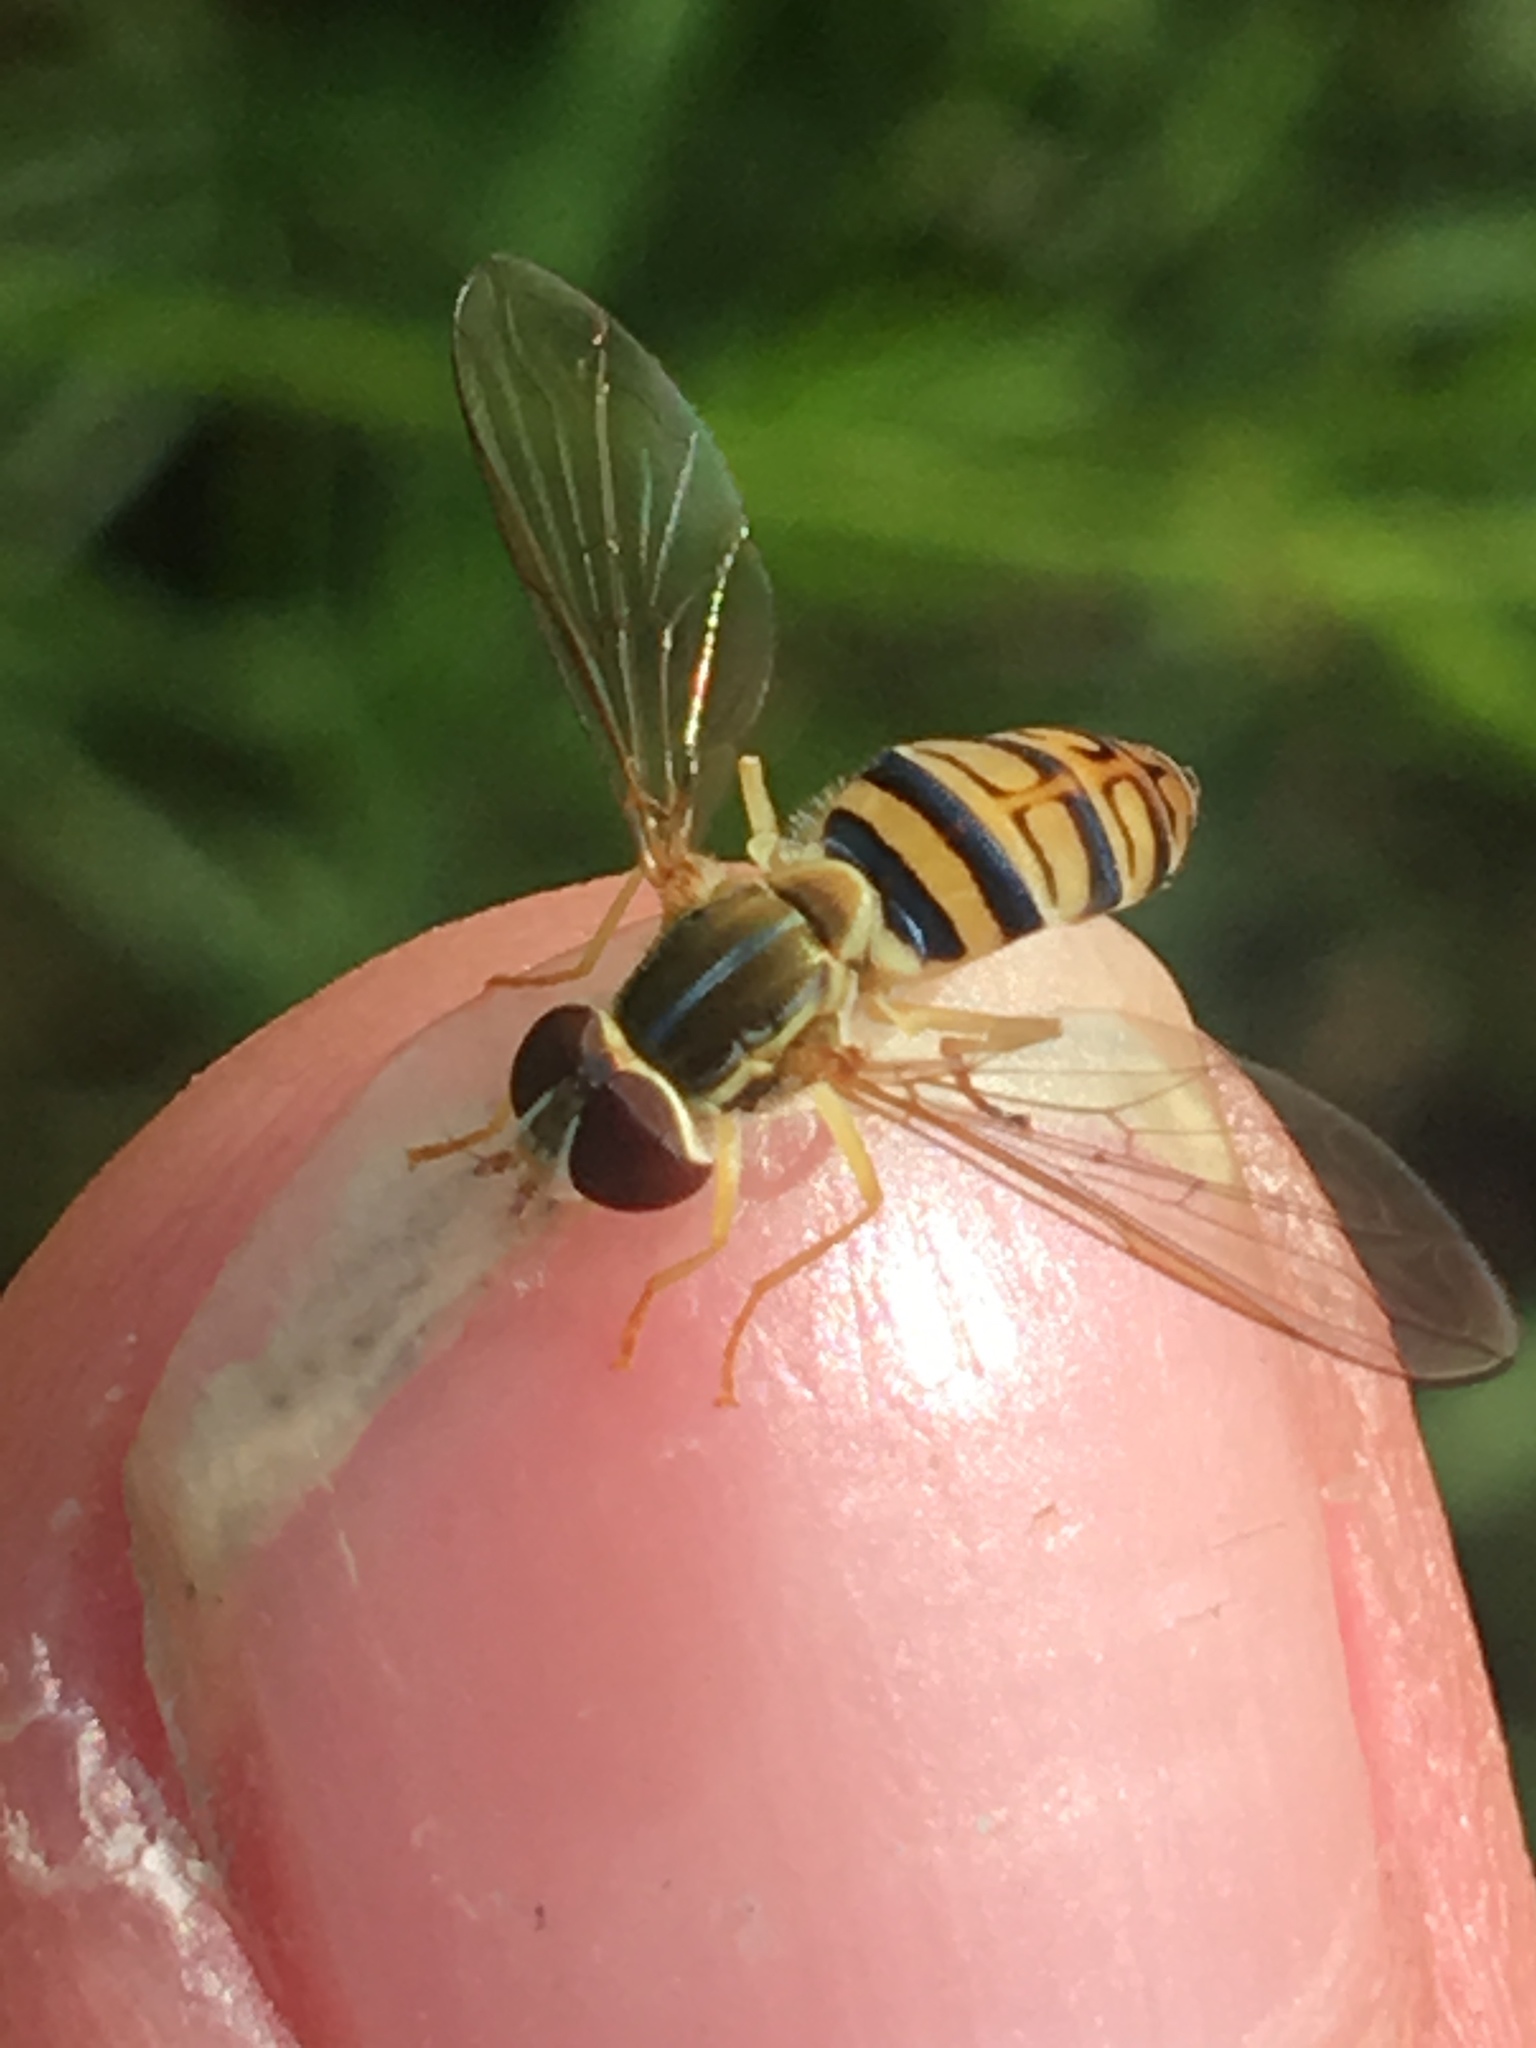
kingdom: Animalia
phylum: Arthropoda
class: Insecta
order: Diptera
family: Syrphidae
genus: Toxomerus
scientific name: Toxomerus politus
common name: Maize calligrapher
